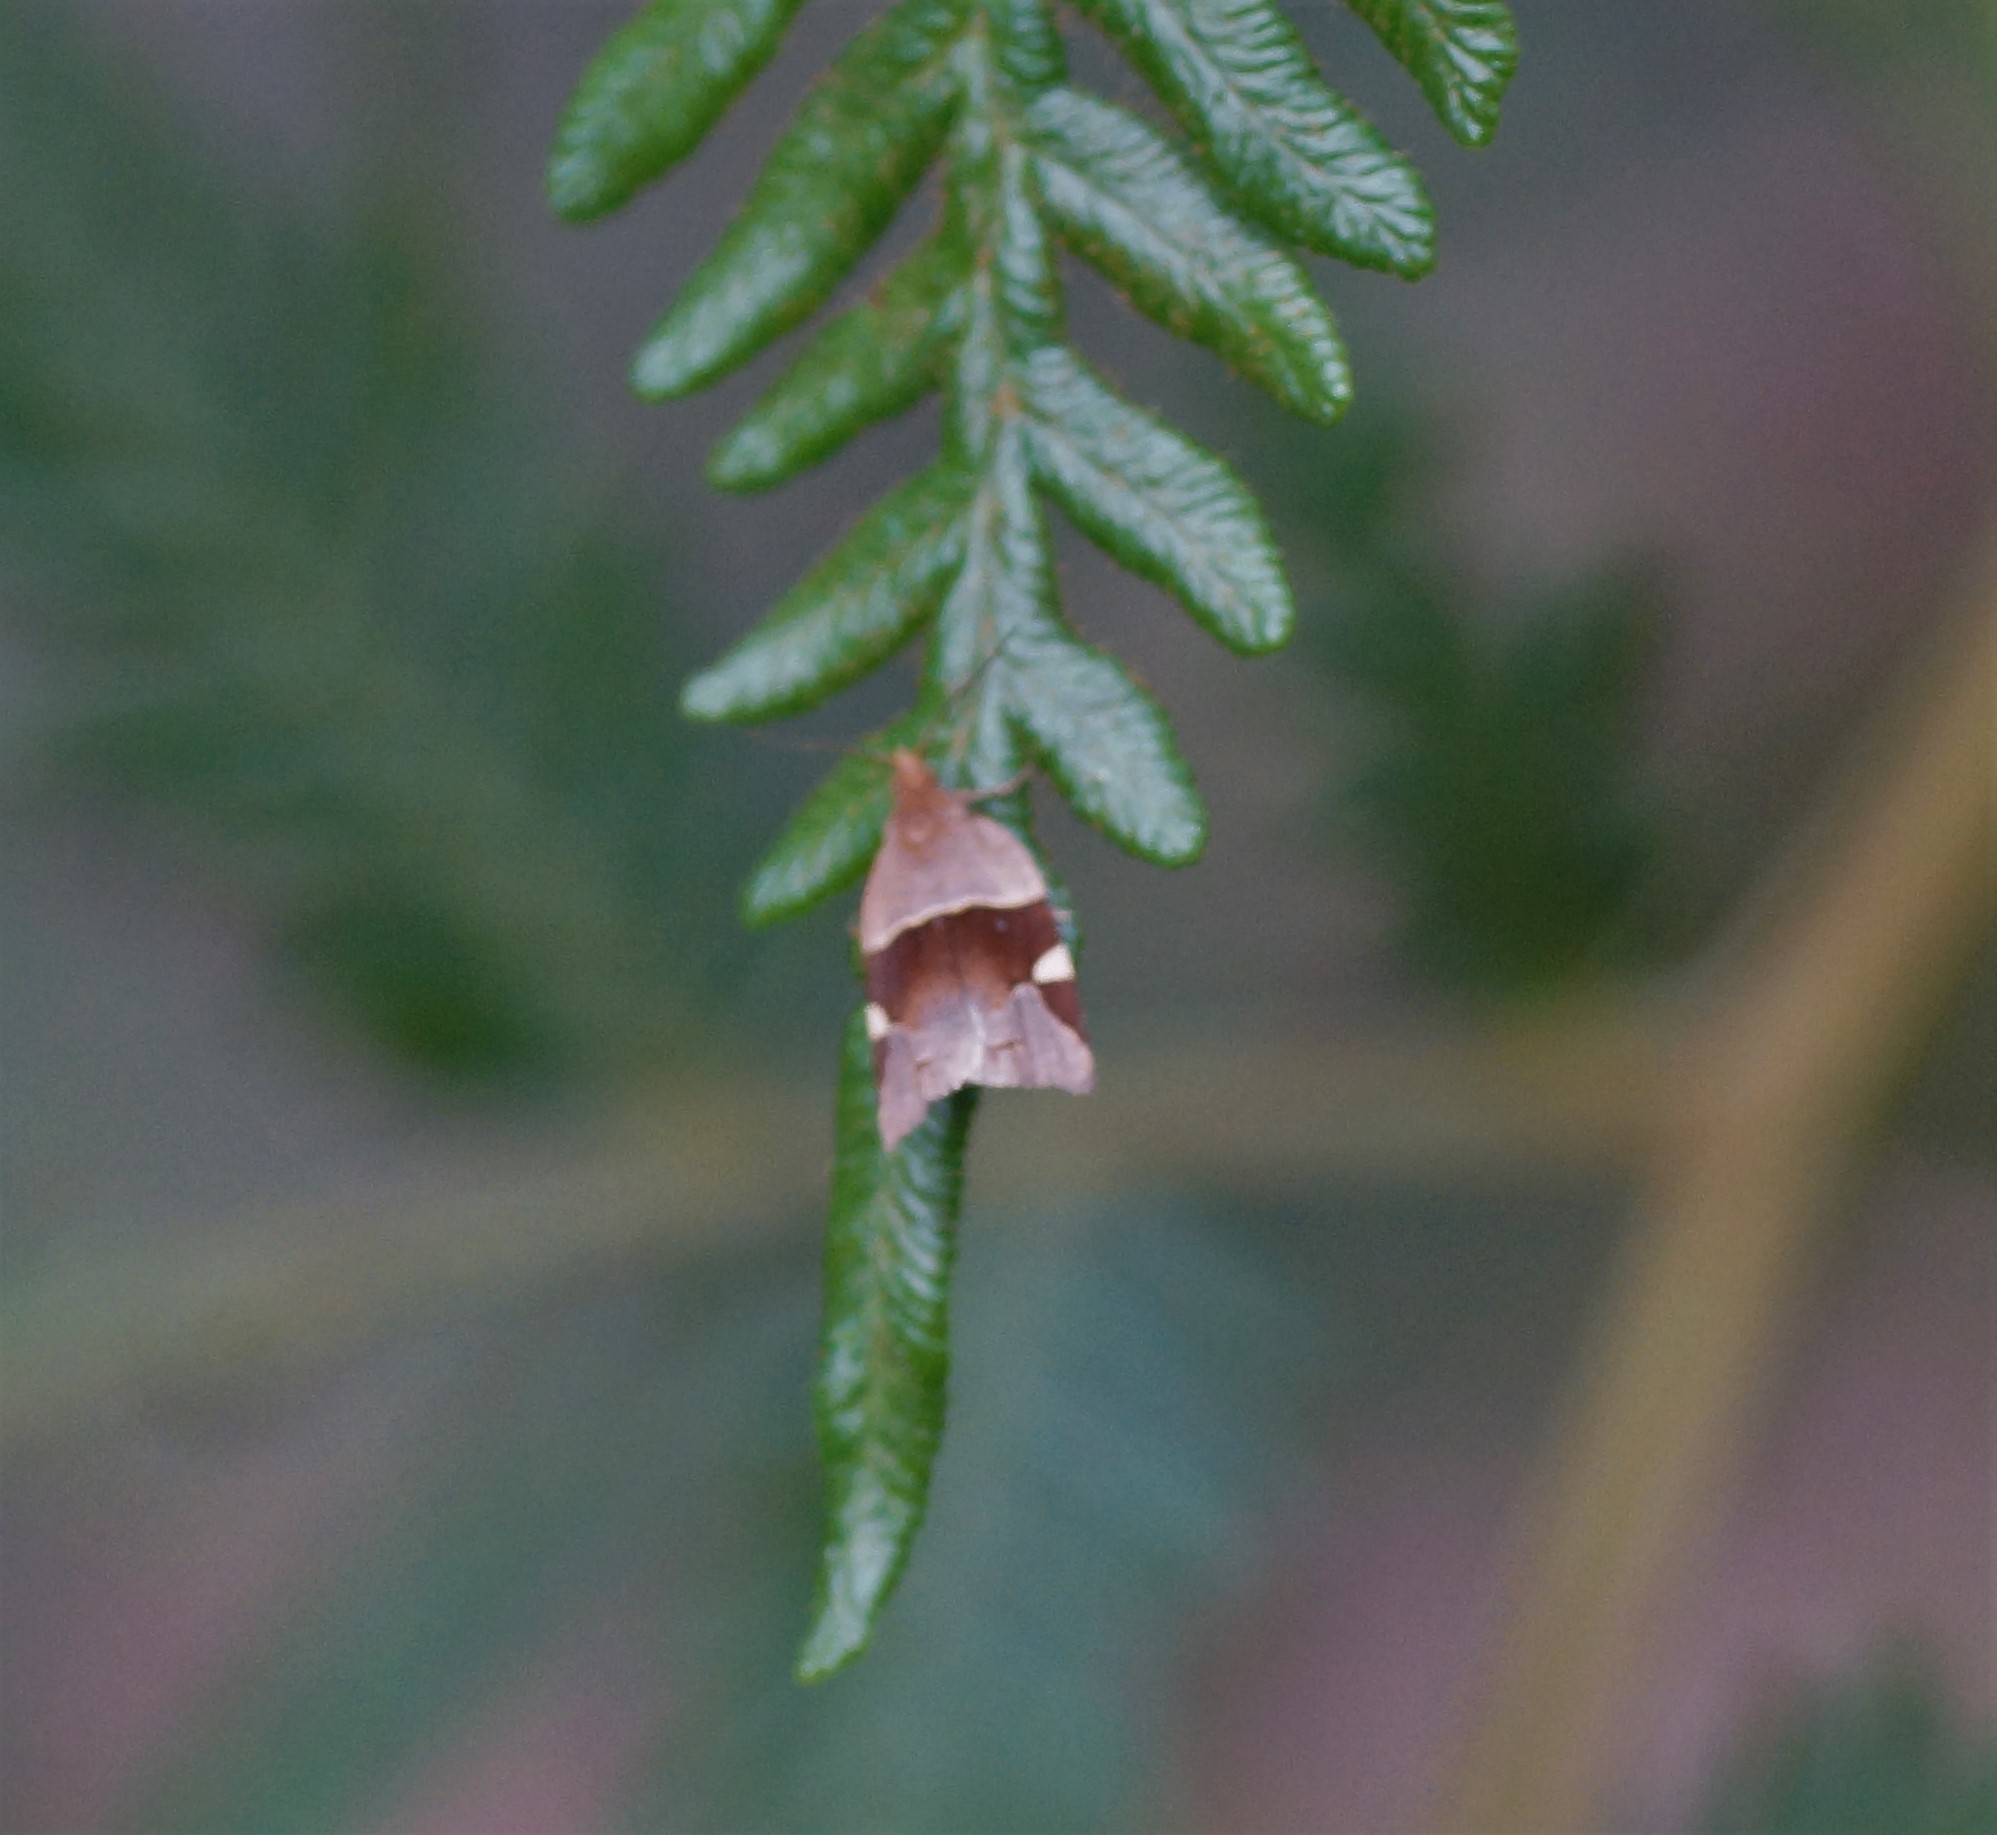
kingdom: Animalia
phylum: Arthropoda
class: Insecta
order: Lepidoptera
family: Tortricidae
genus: Anisogona
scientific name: Anisogona placoxantha
